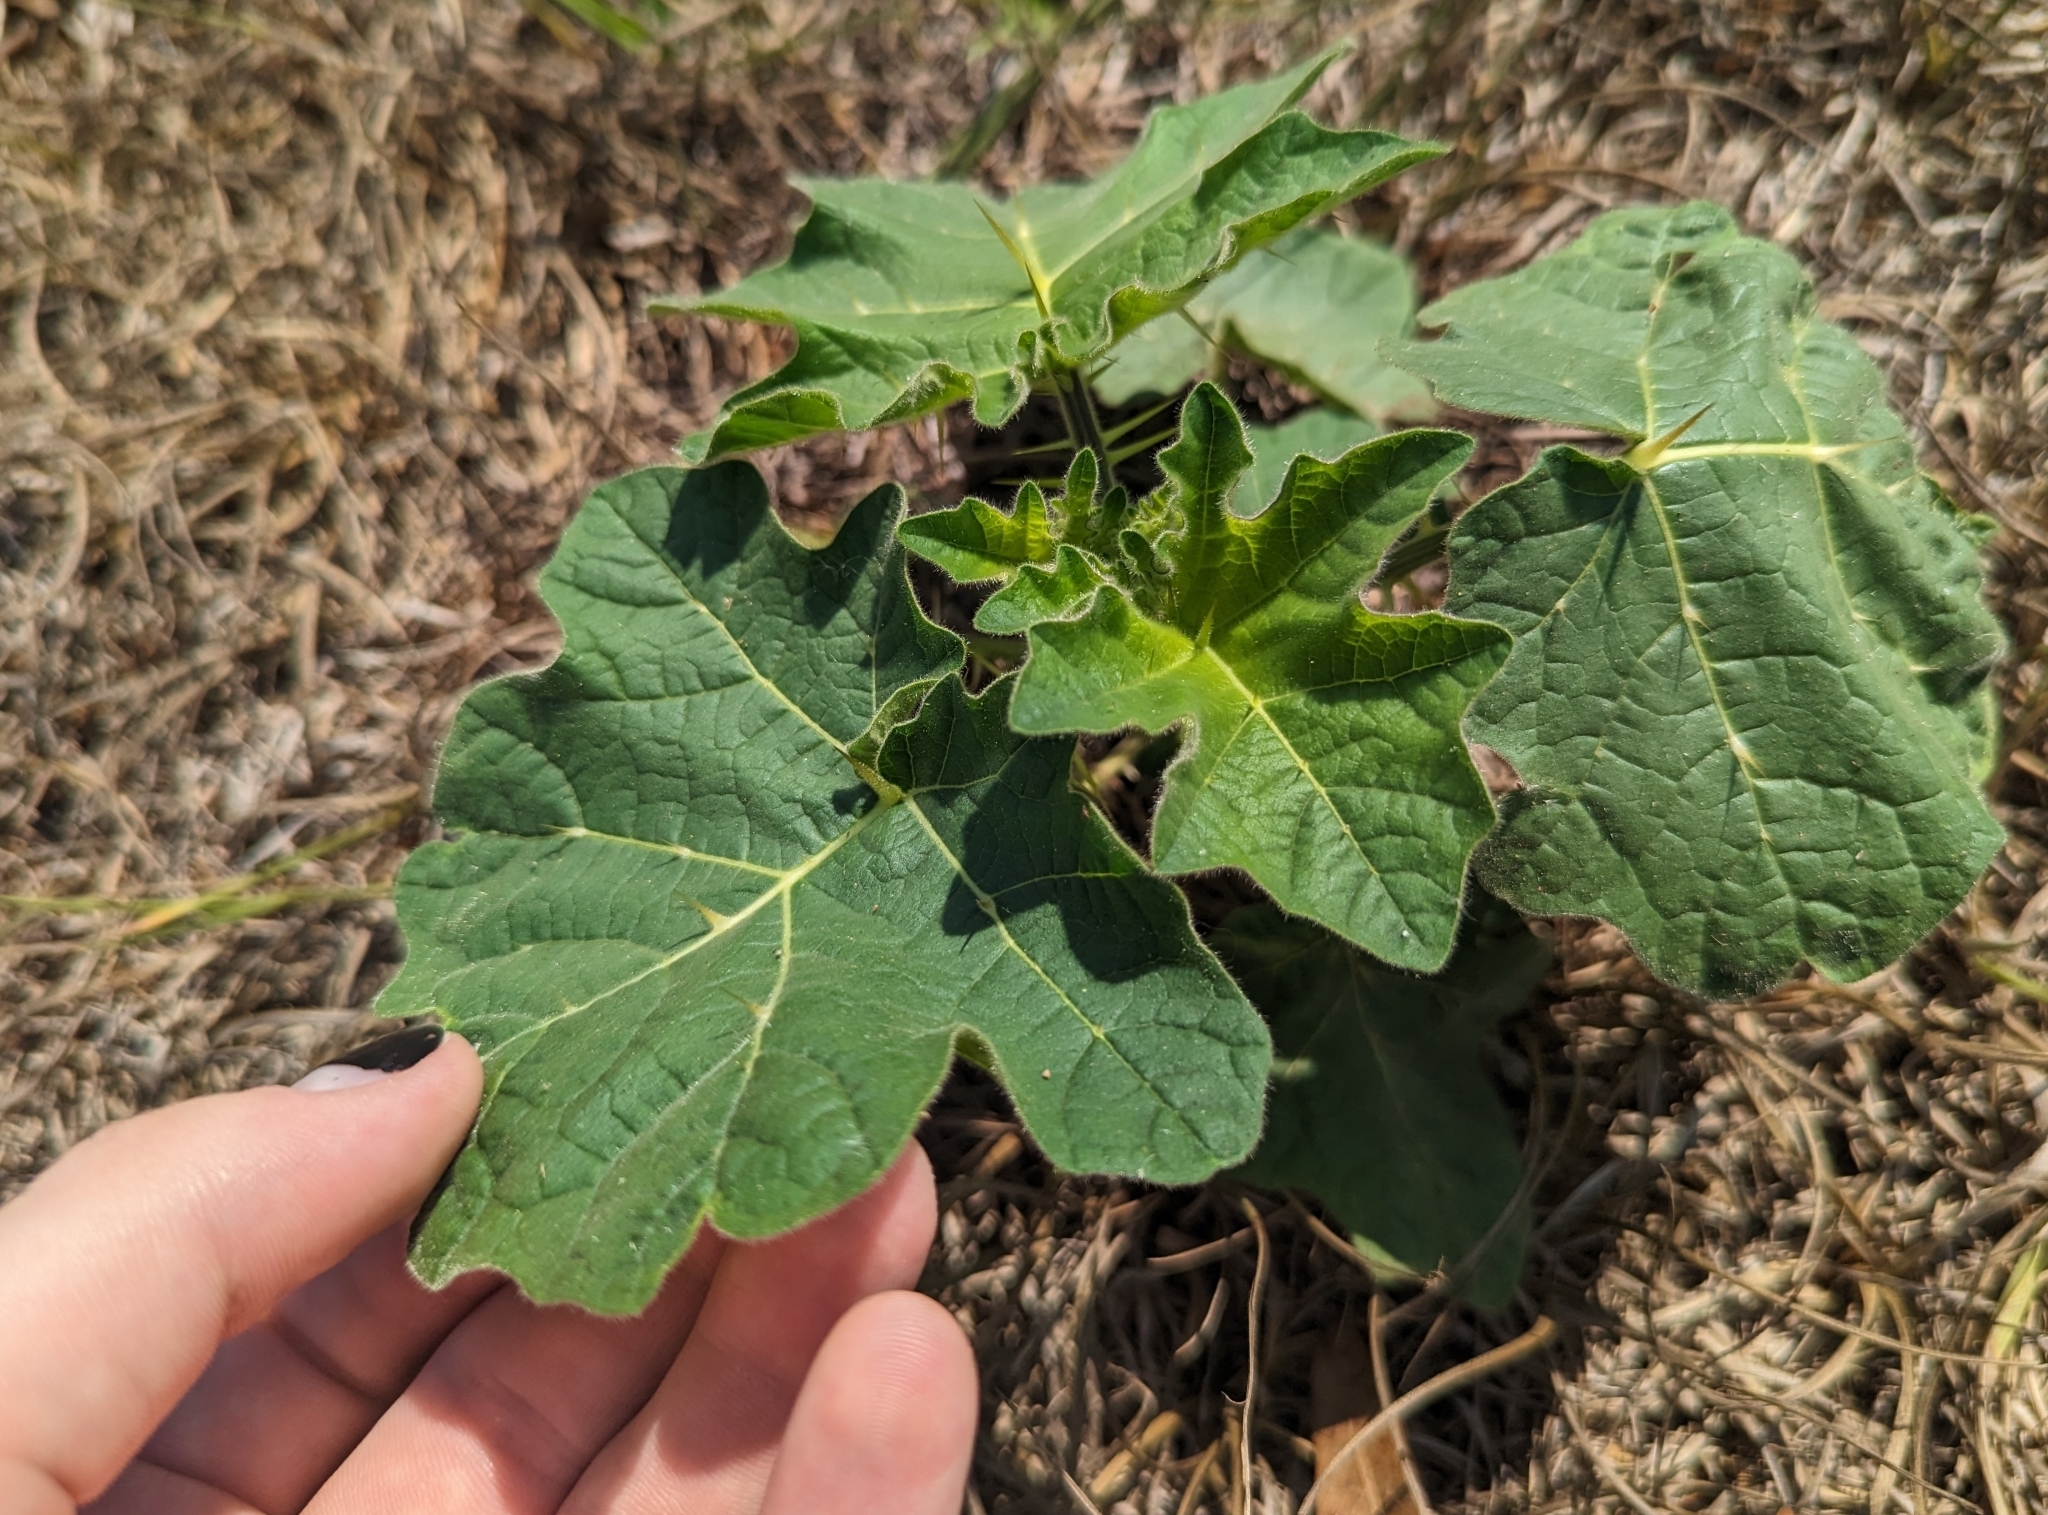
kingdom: Plantae
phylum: Tracheophyta
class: Magnoliopsida
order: Solanales
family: Solanaceae
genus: Solanum
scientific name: Solanum viarum
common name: Tropical soda apple
